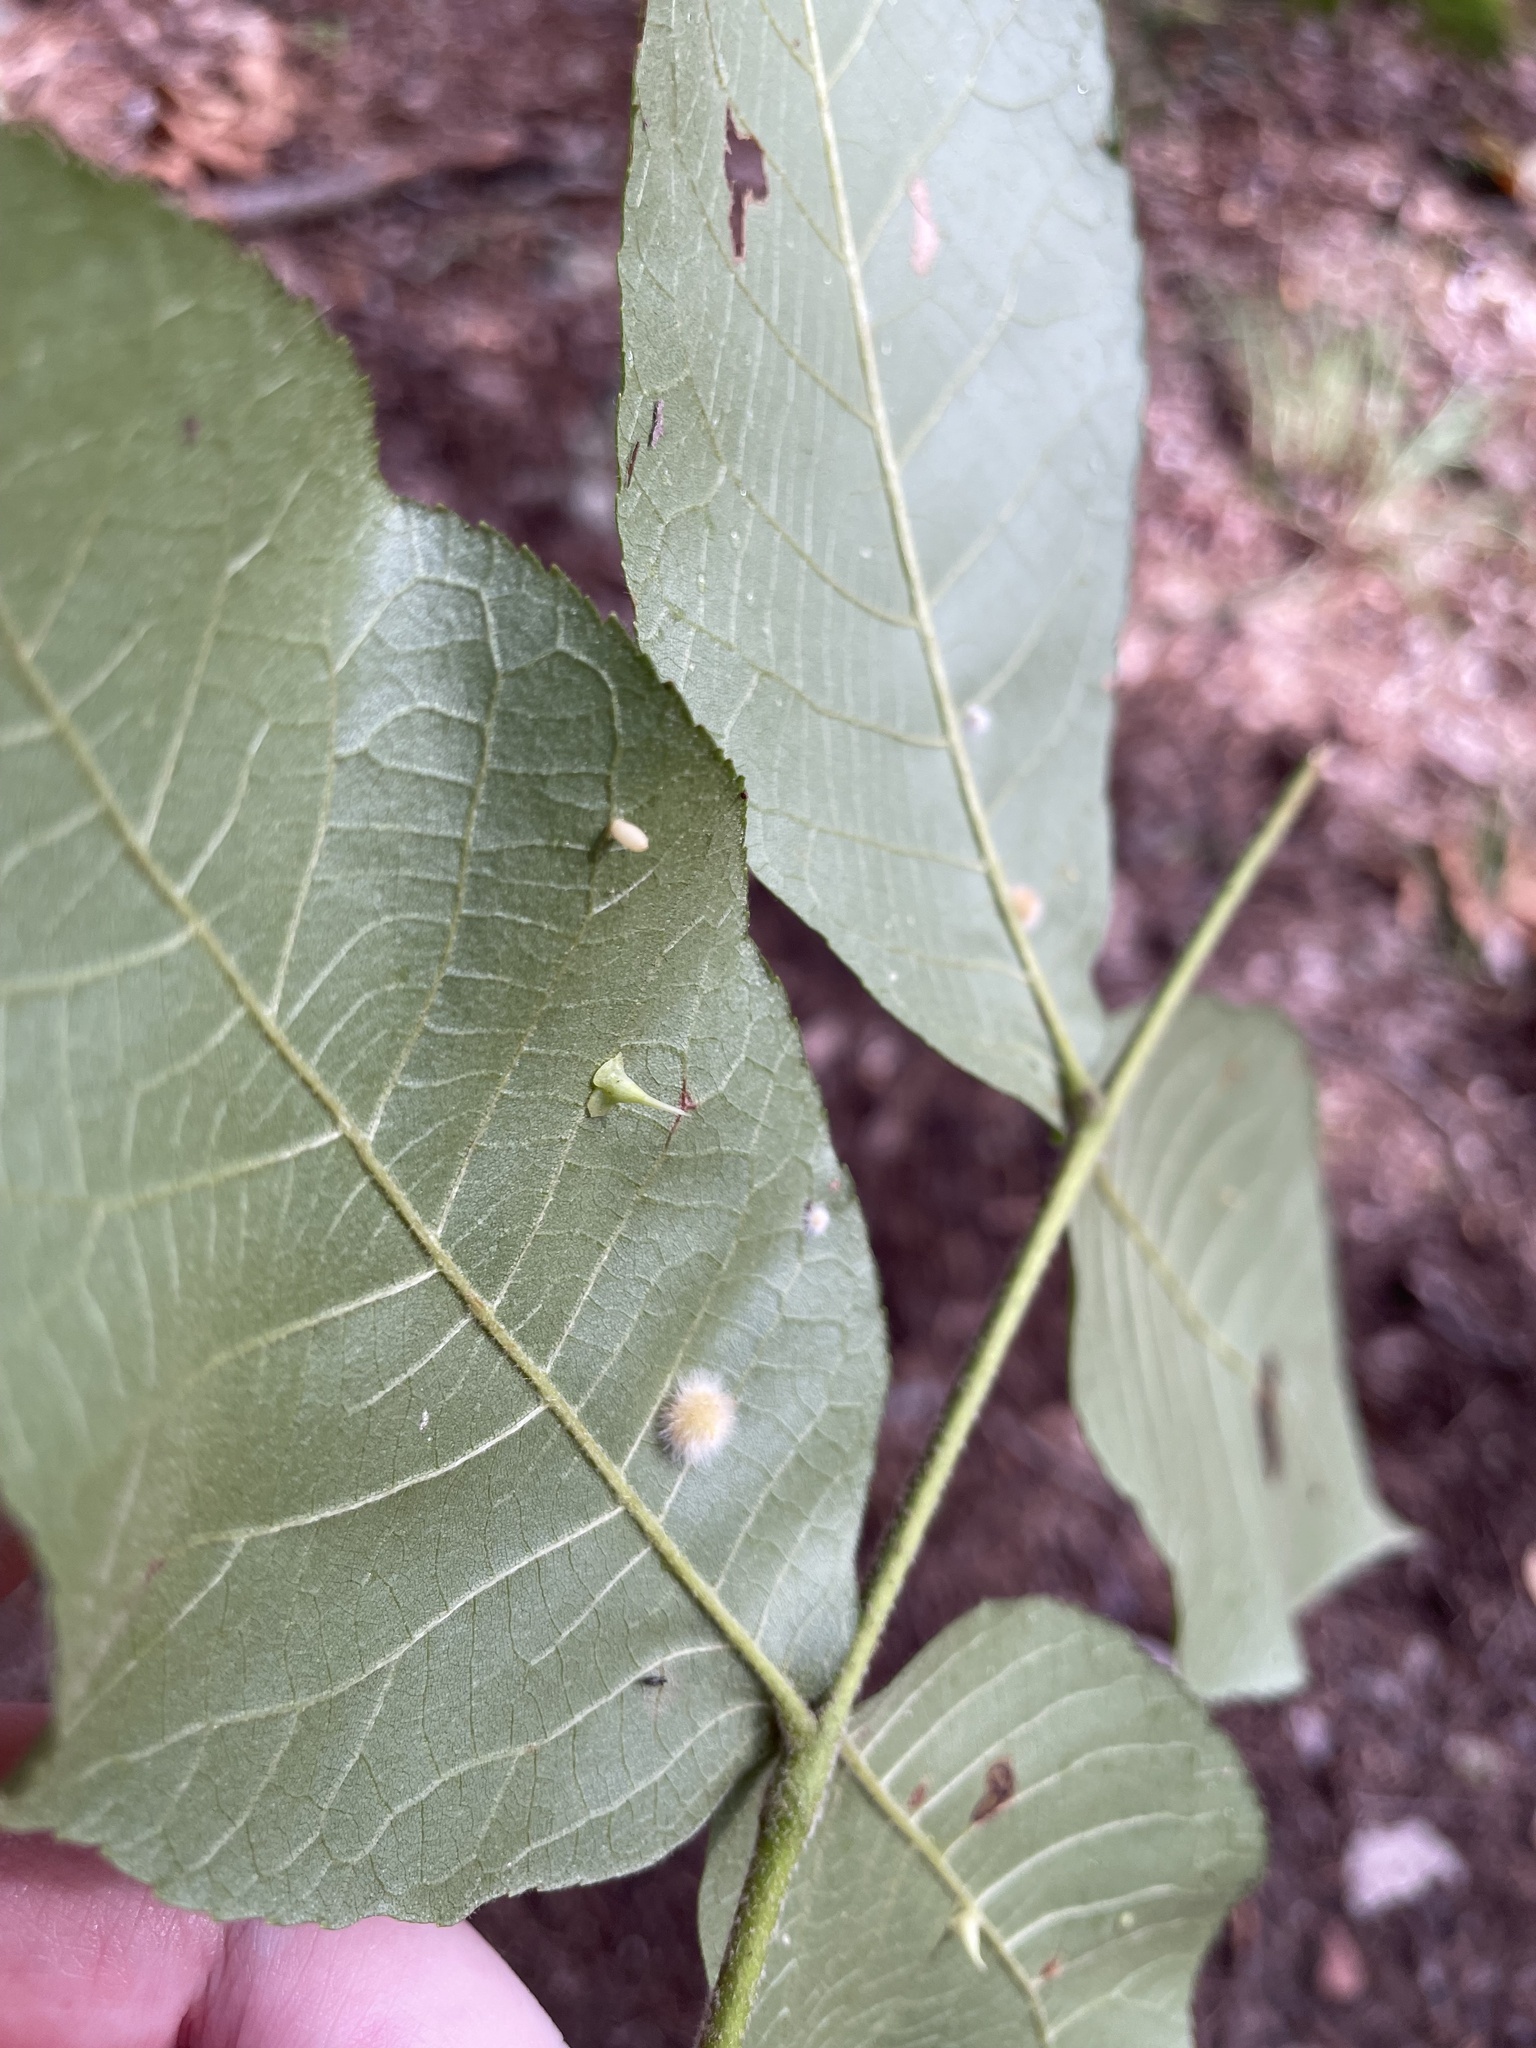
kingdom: Animalia
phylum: Arthropoda
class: Insecta
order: Diptera
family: Cecidomyiidae
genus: Caryomyia
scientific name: Caryomyia stellata
